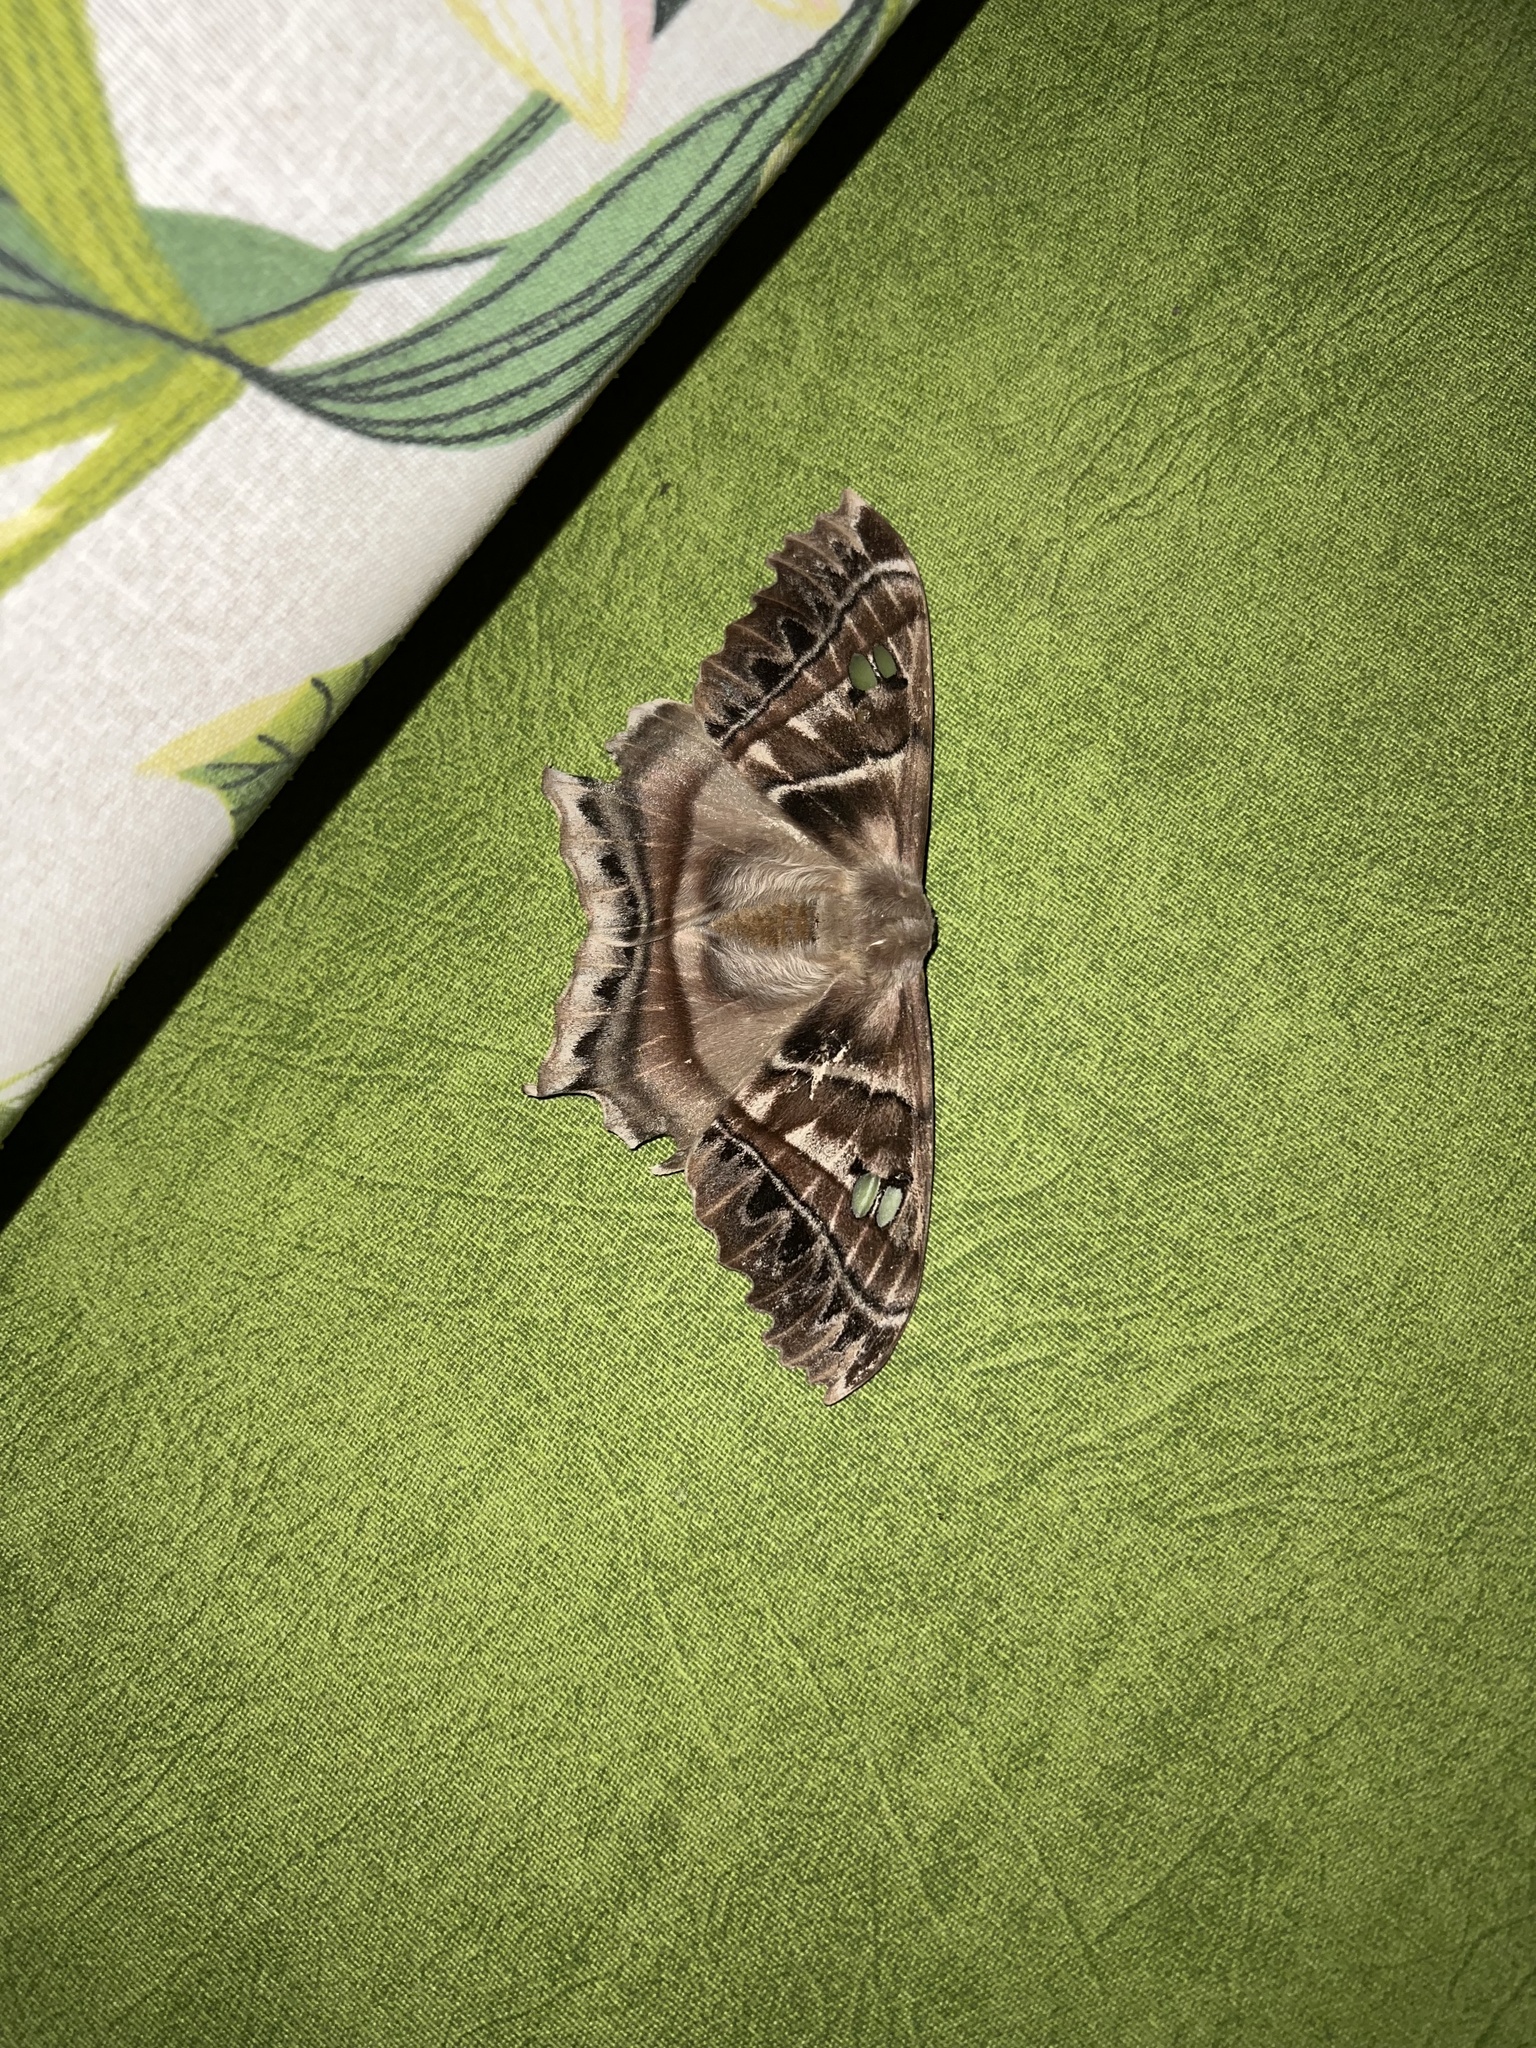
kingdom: Animalia
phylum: Arthropoda
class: Insecta
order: Lepidoptera
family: Saturniidae
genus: Titaea
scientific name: Titaea raveni
